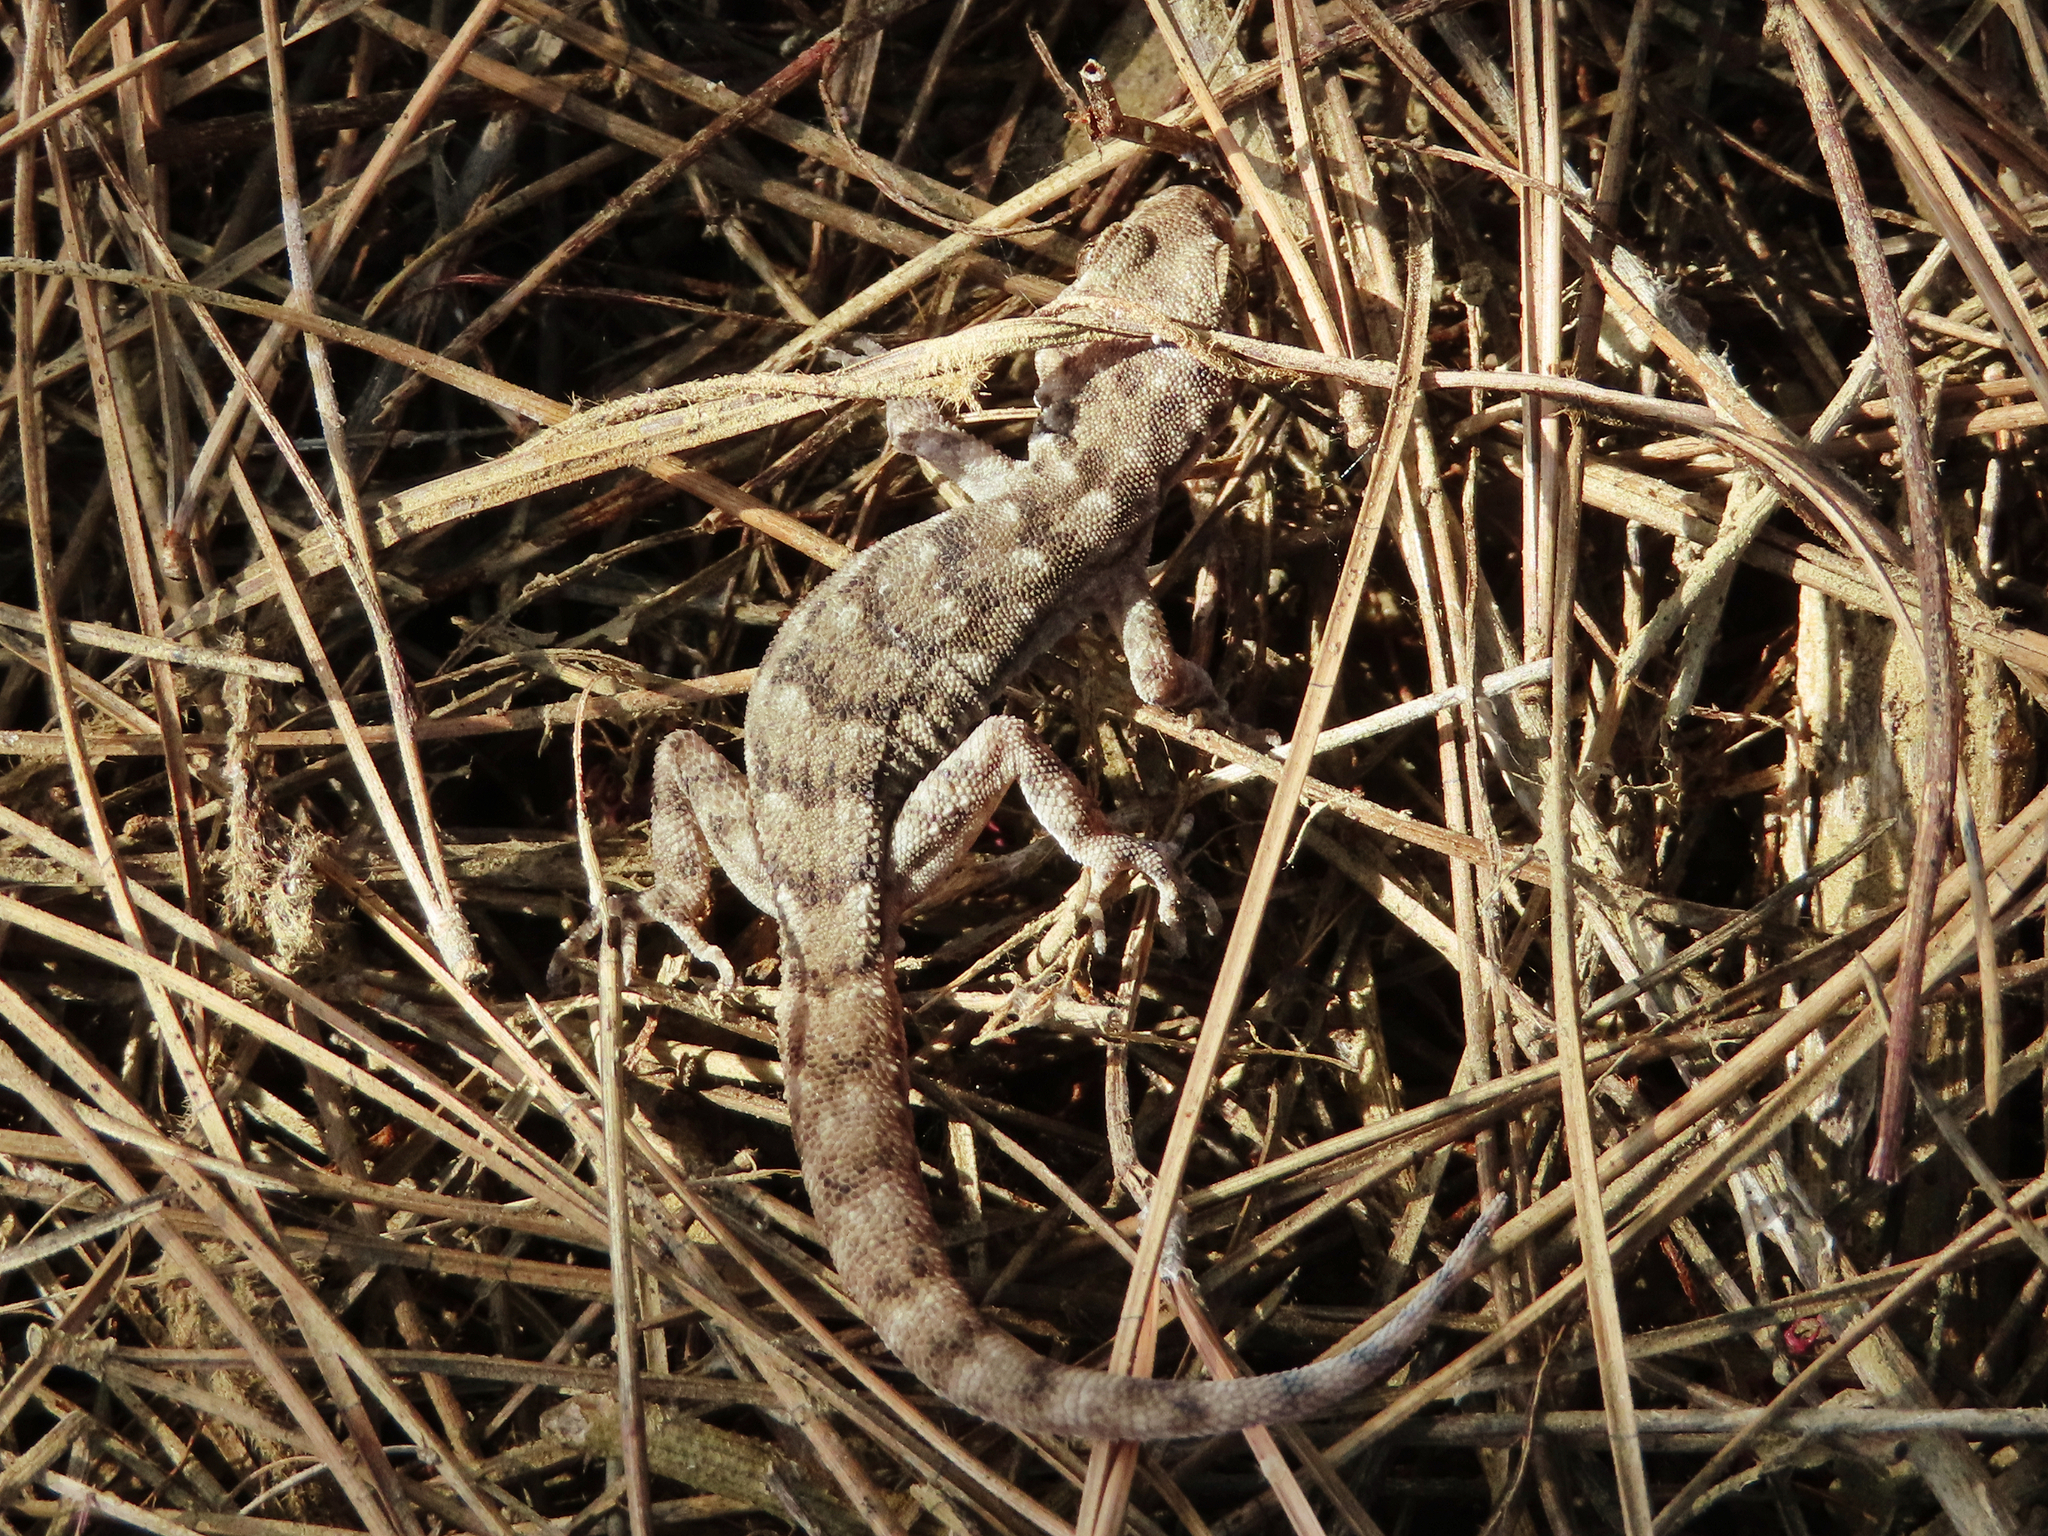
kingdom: Animalia
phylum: Chordata
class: Squamata
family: Gekkonidae
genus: Mediodactylus
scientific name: Mediodactylus oertzeni
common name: Mediterranean thin-toed gecko
